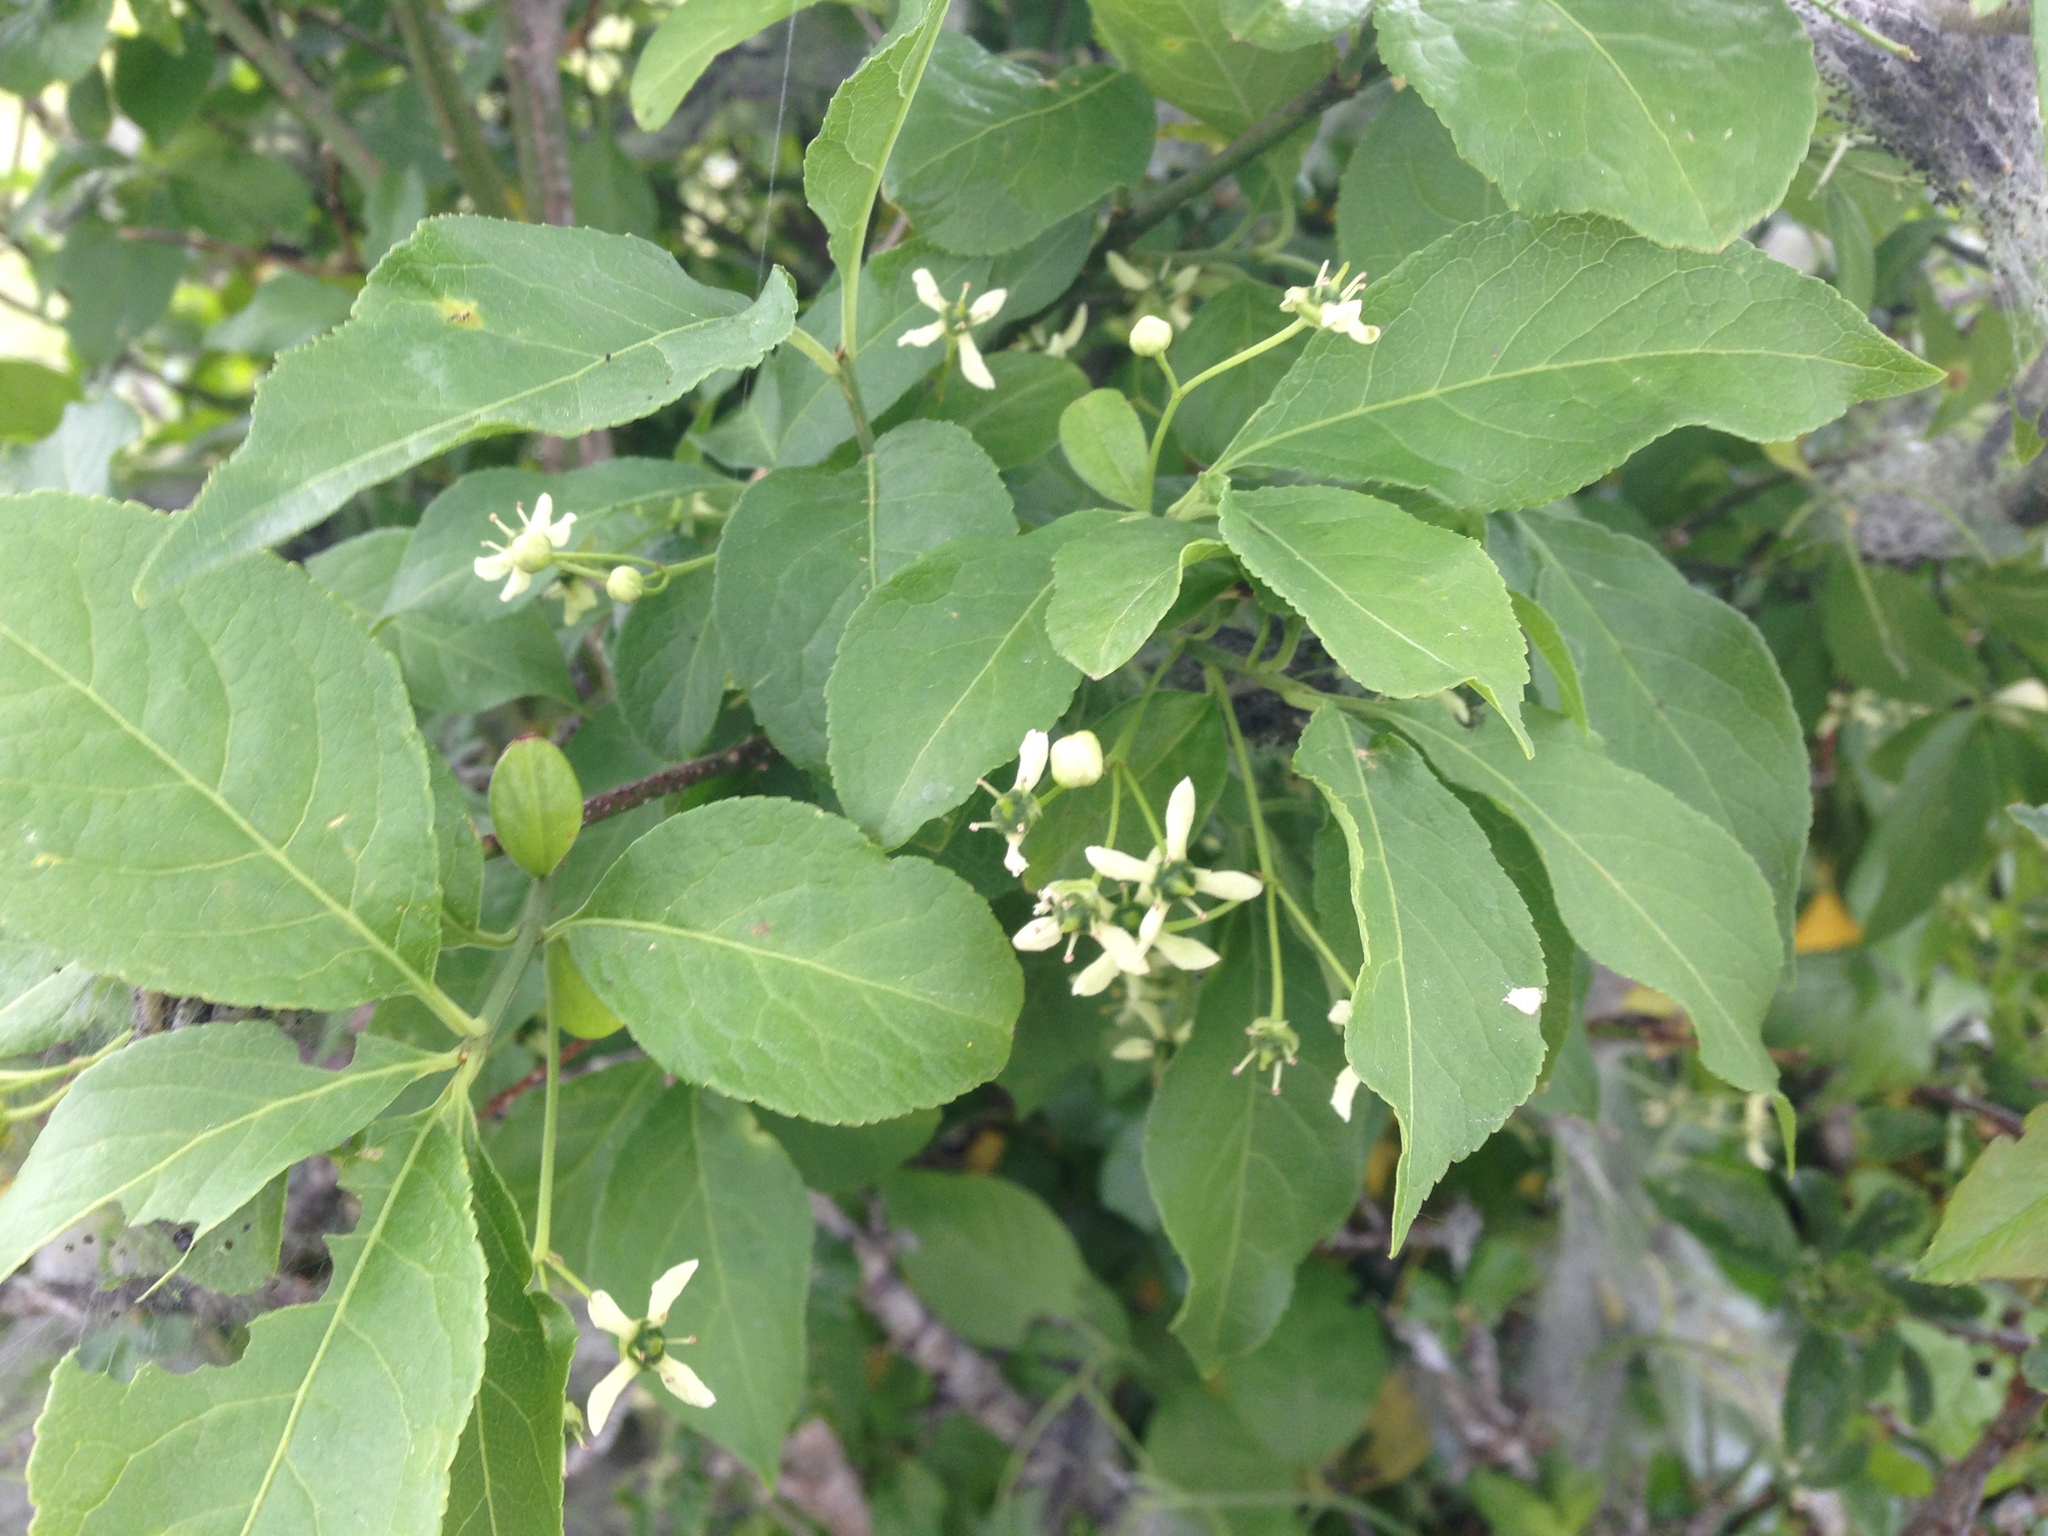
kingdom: Plantae
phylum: Tracheophyta
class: Magnoliopsida
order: Celastrales
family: Celastraceae
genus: Euonymus
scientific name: Euonymus europaeus
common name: Spindle
